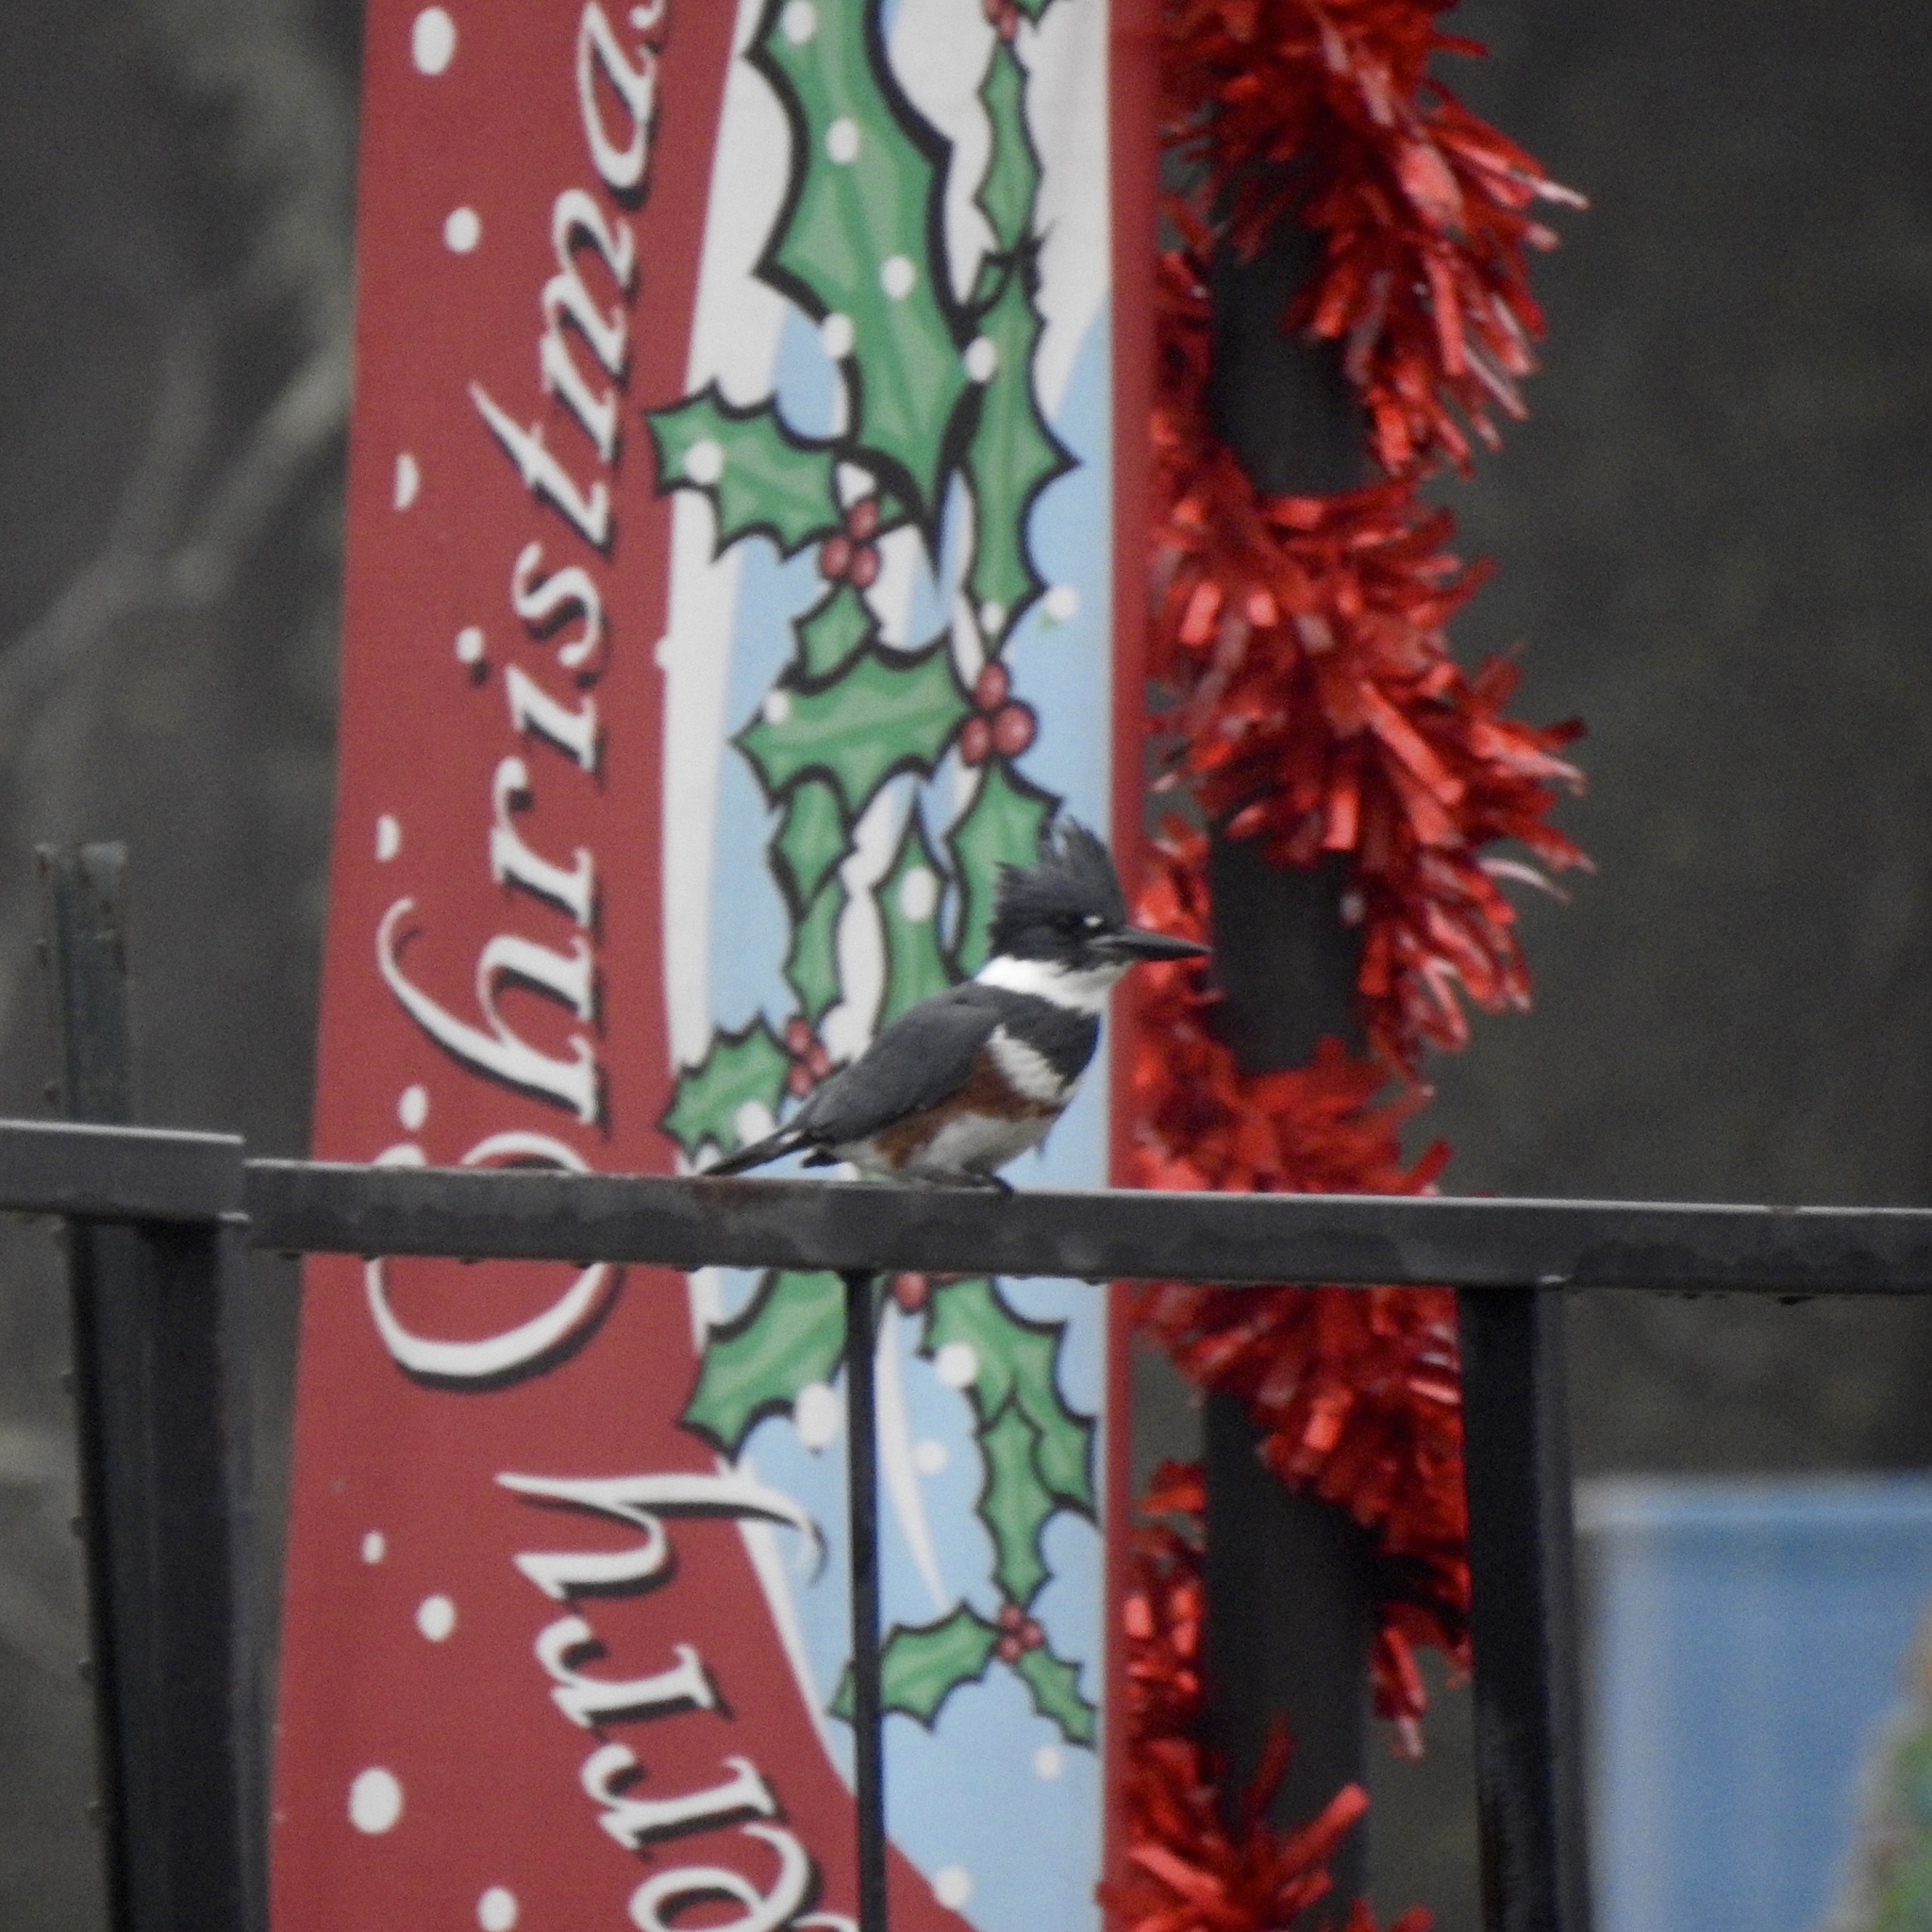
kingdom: Animalia
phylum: Chordata
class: Aves
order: Coraciiformes
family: Alcedinidae
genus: Megaceryle
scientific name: Megaceryle alcyon
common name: Belted kingfisher
